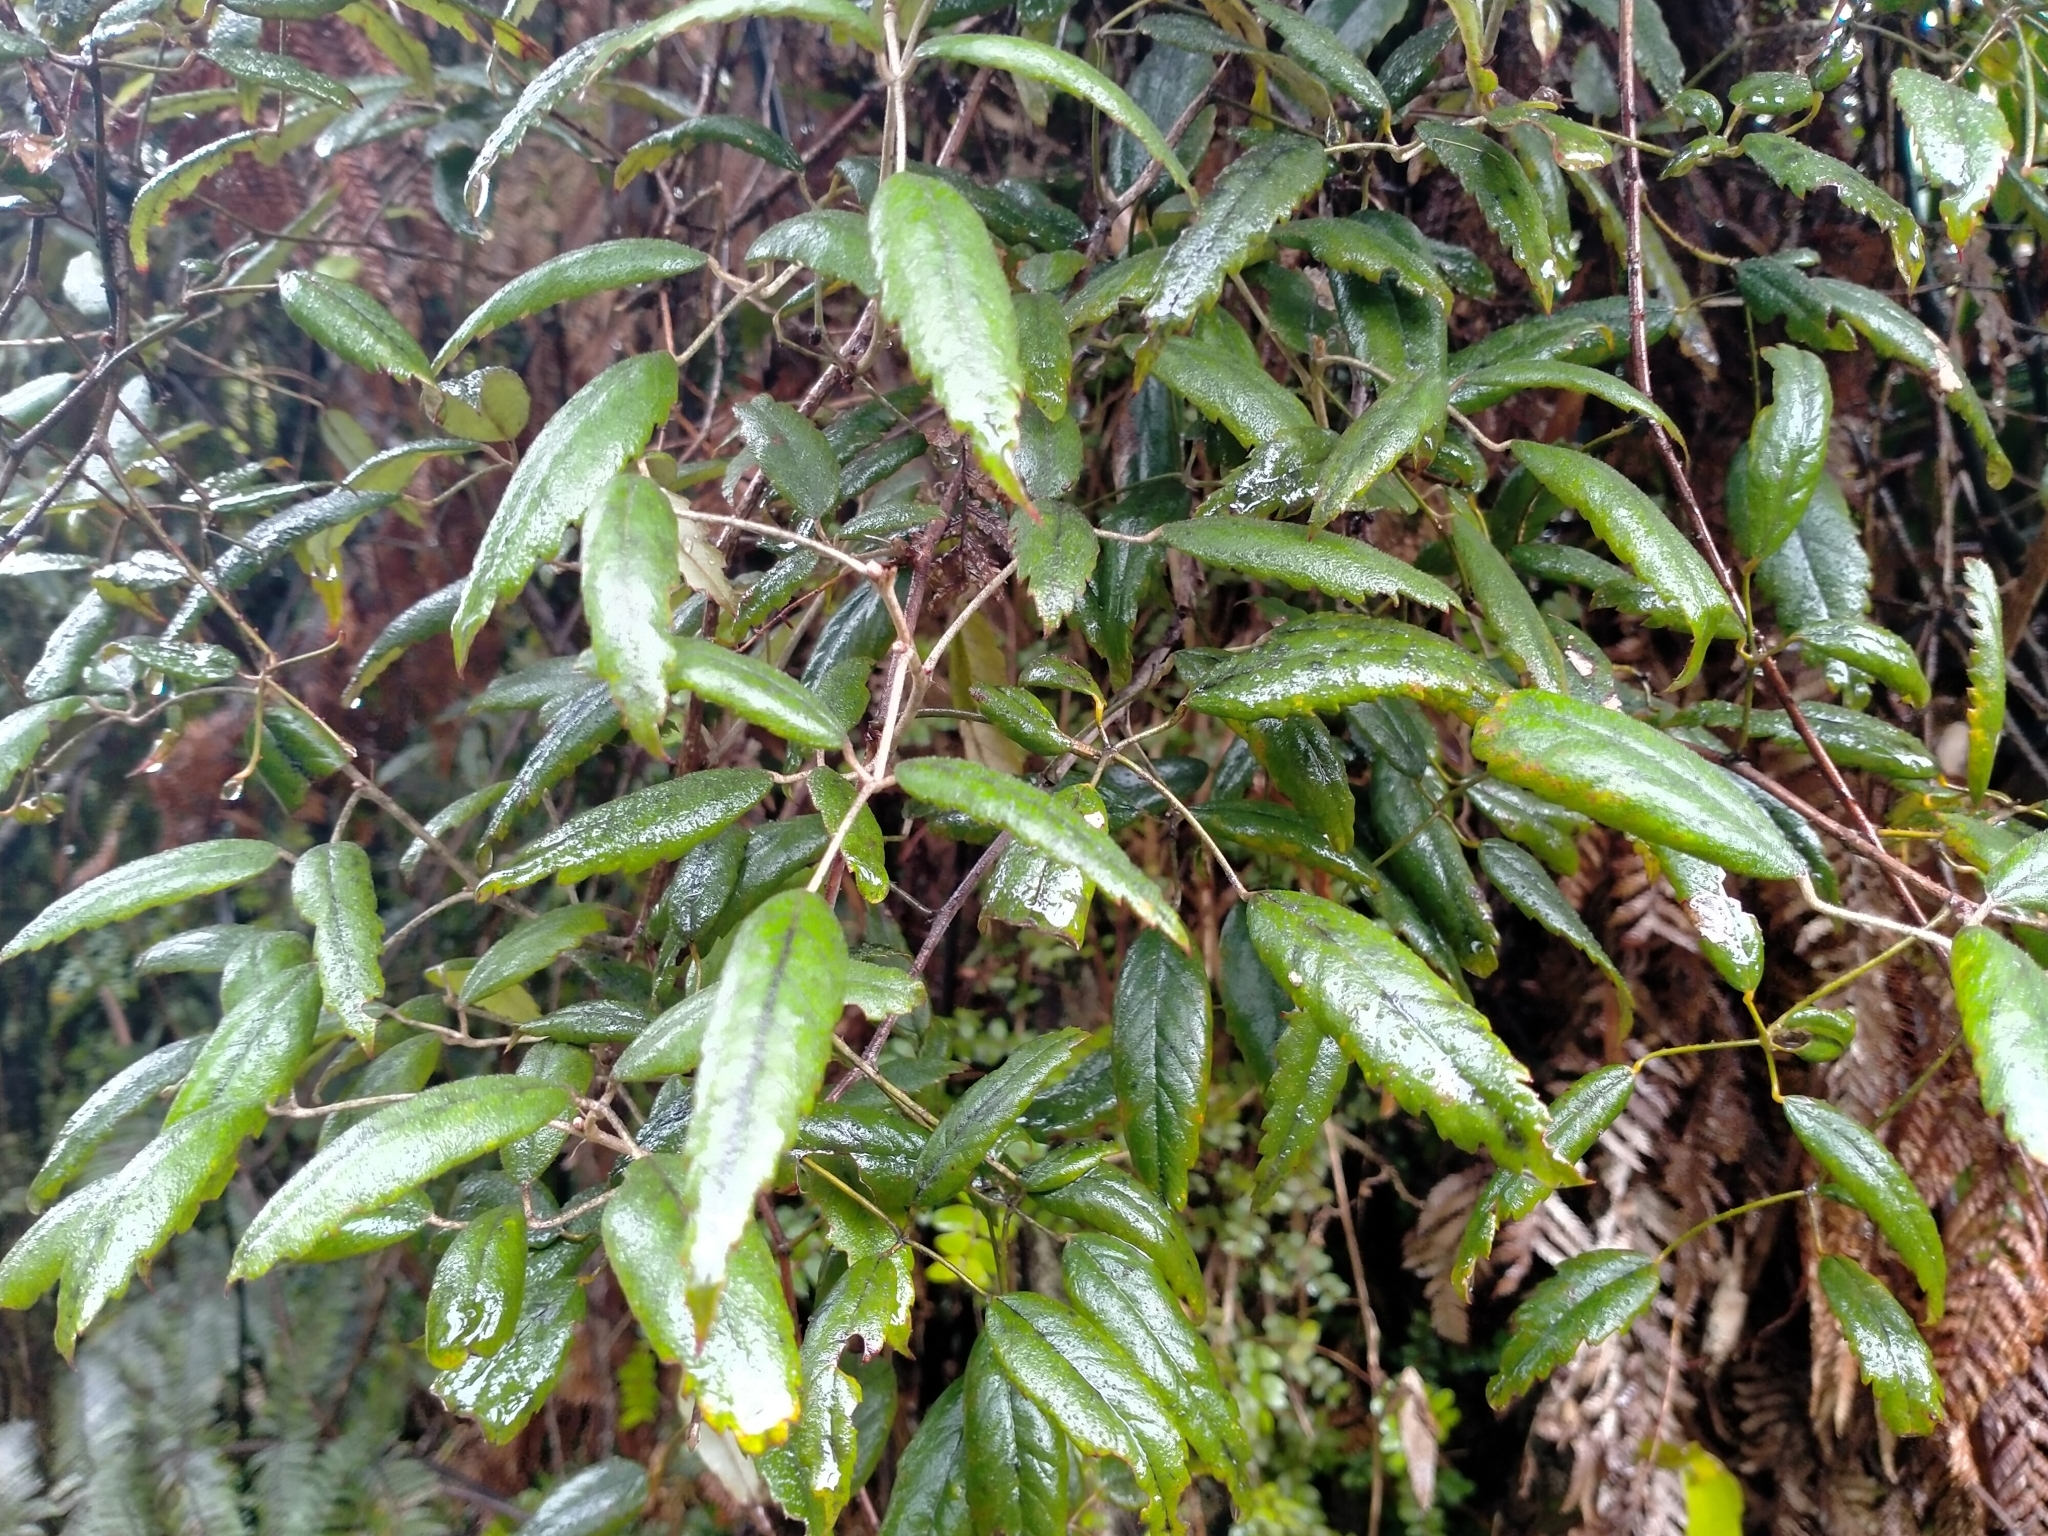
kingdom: Plantae
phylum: Tracheophyta
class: Magnoliopsida
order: Rosales
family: Rosaceae
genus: Rubus
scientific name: Rubus schmidelioides
